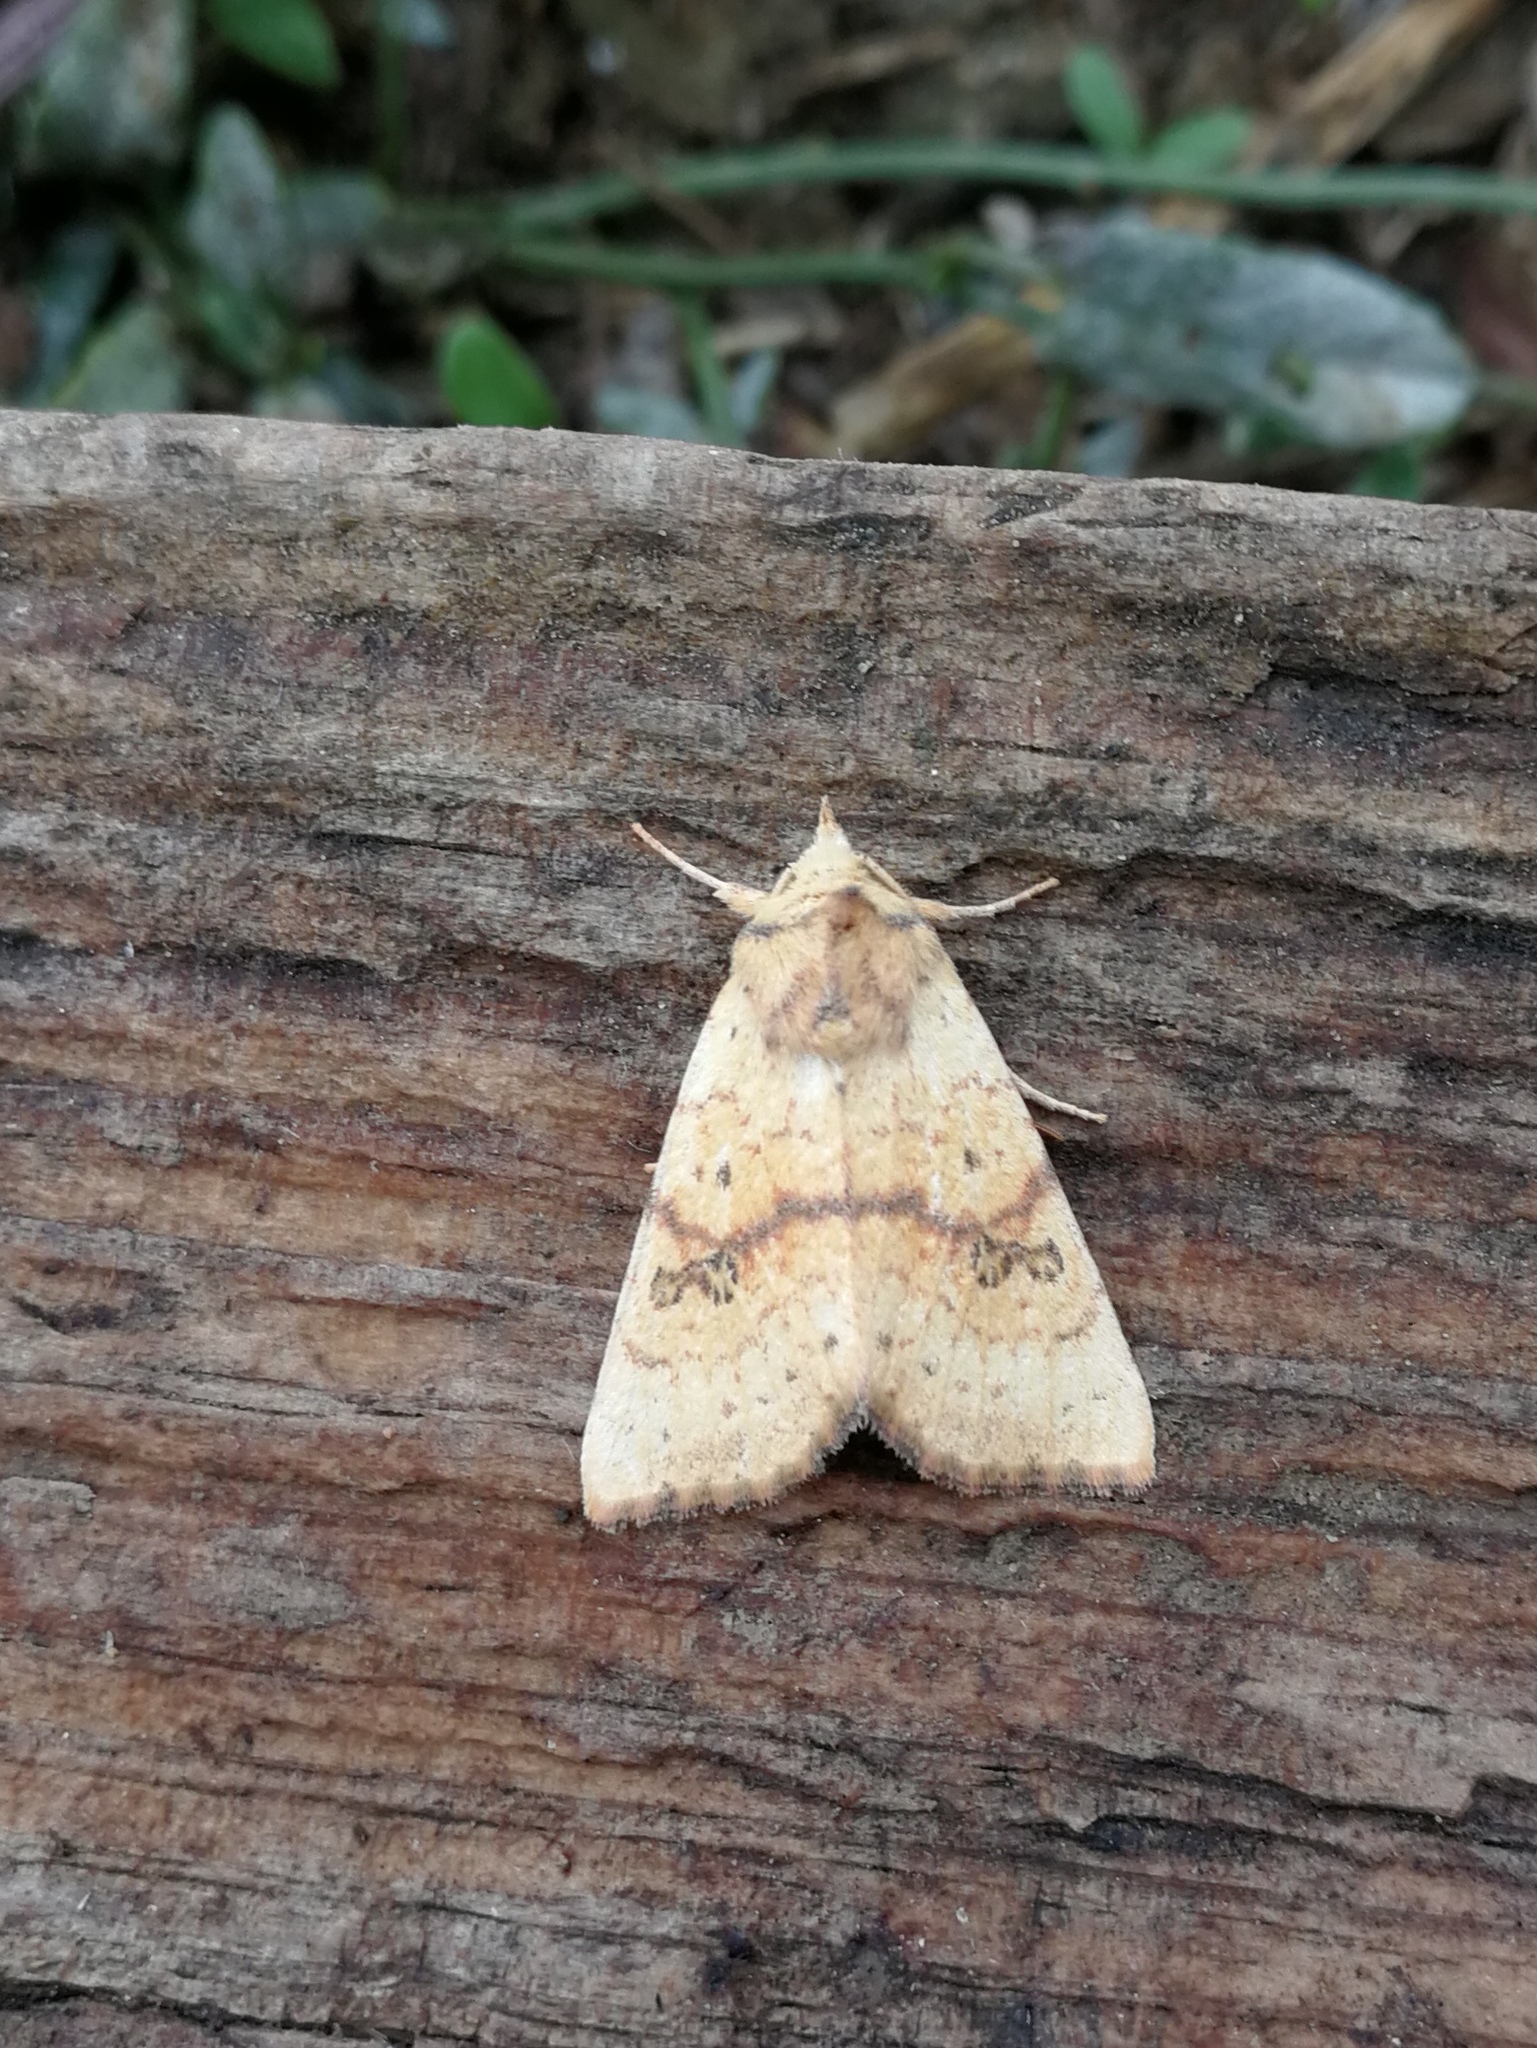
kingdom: Animalia
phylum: Arthropoda
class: Insecta
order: Lepidoptera
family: Noctuidae
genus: Tiliacea
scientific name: Tiliacea sulphurago
